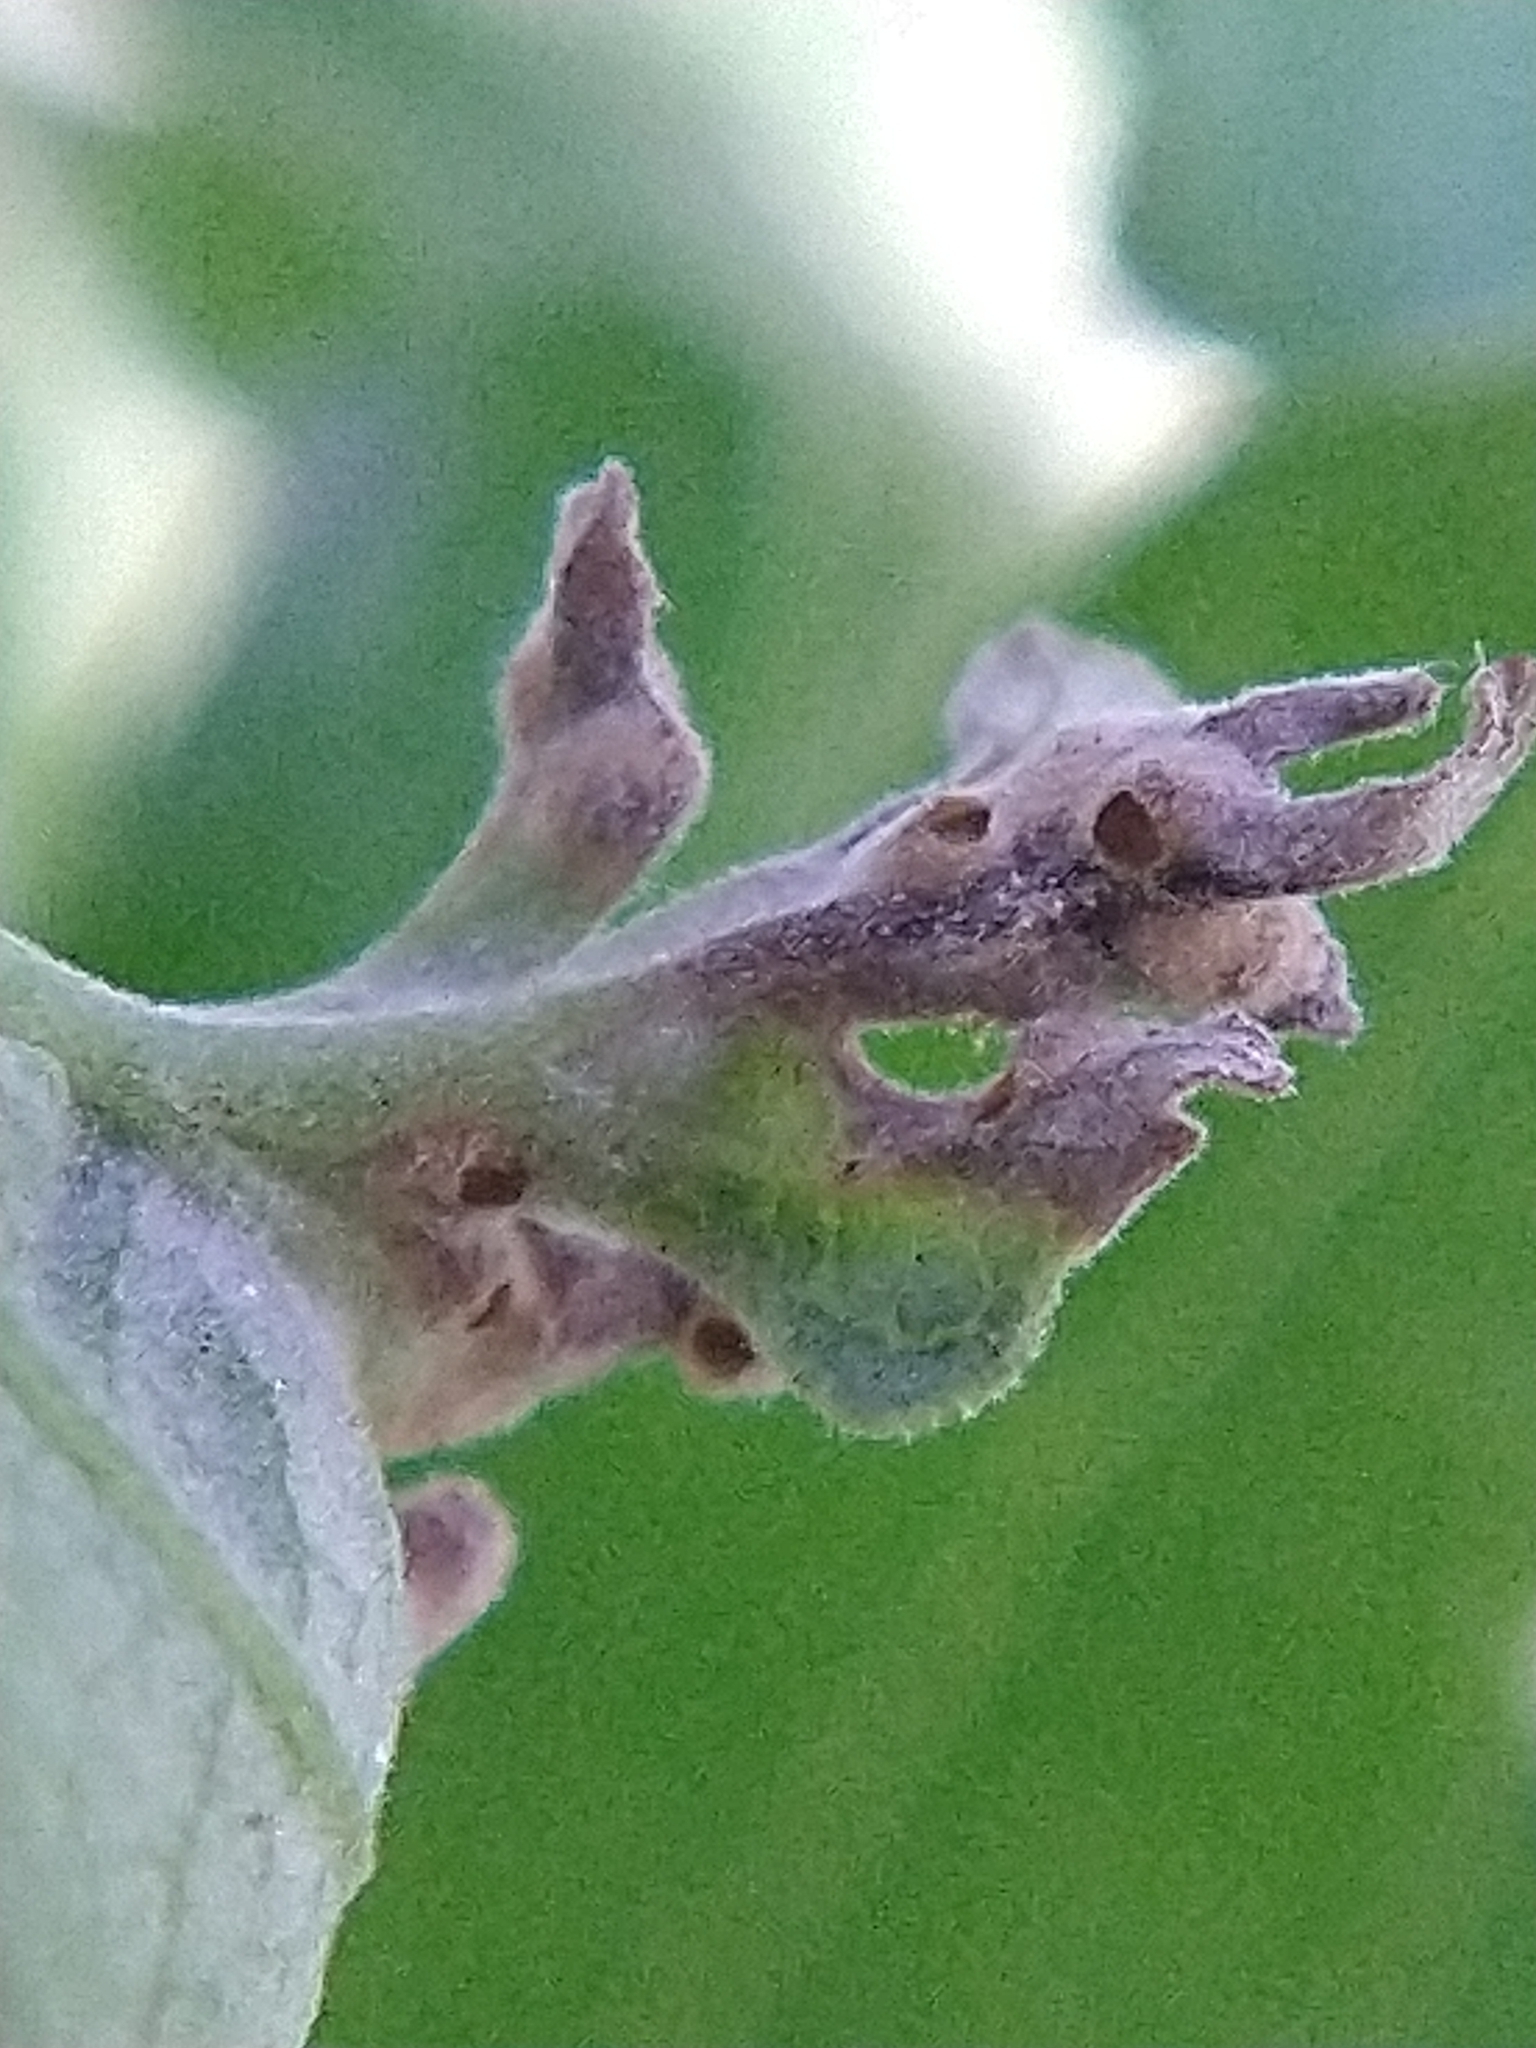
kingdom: Animalia
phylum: Arthropoda
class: Insecta
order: Hymenoptera
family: Cynipidae
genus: Neuroterus
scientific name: Neuroterus saltarius
